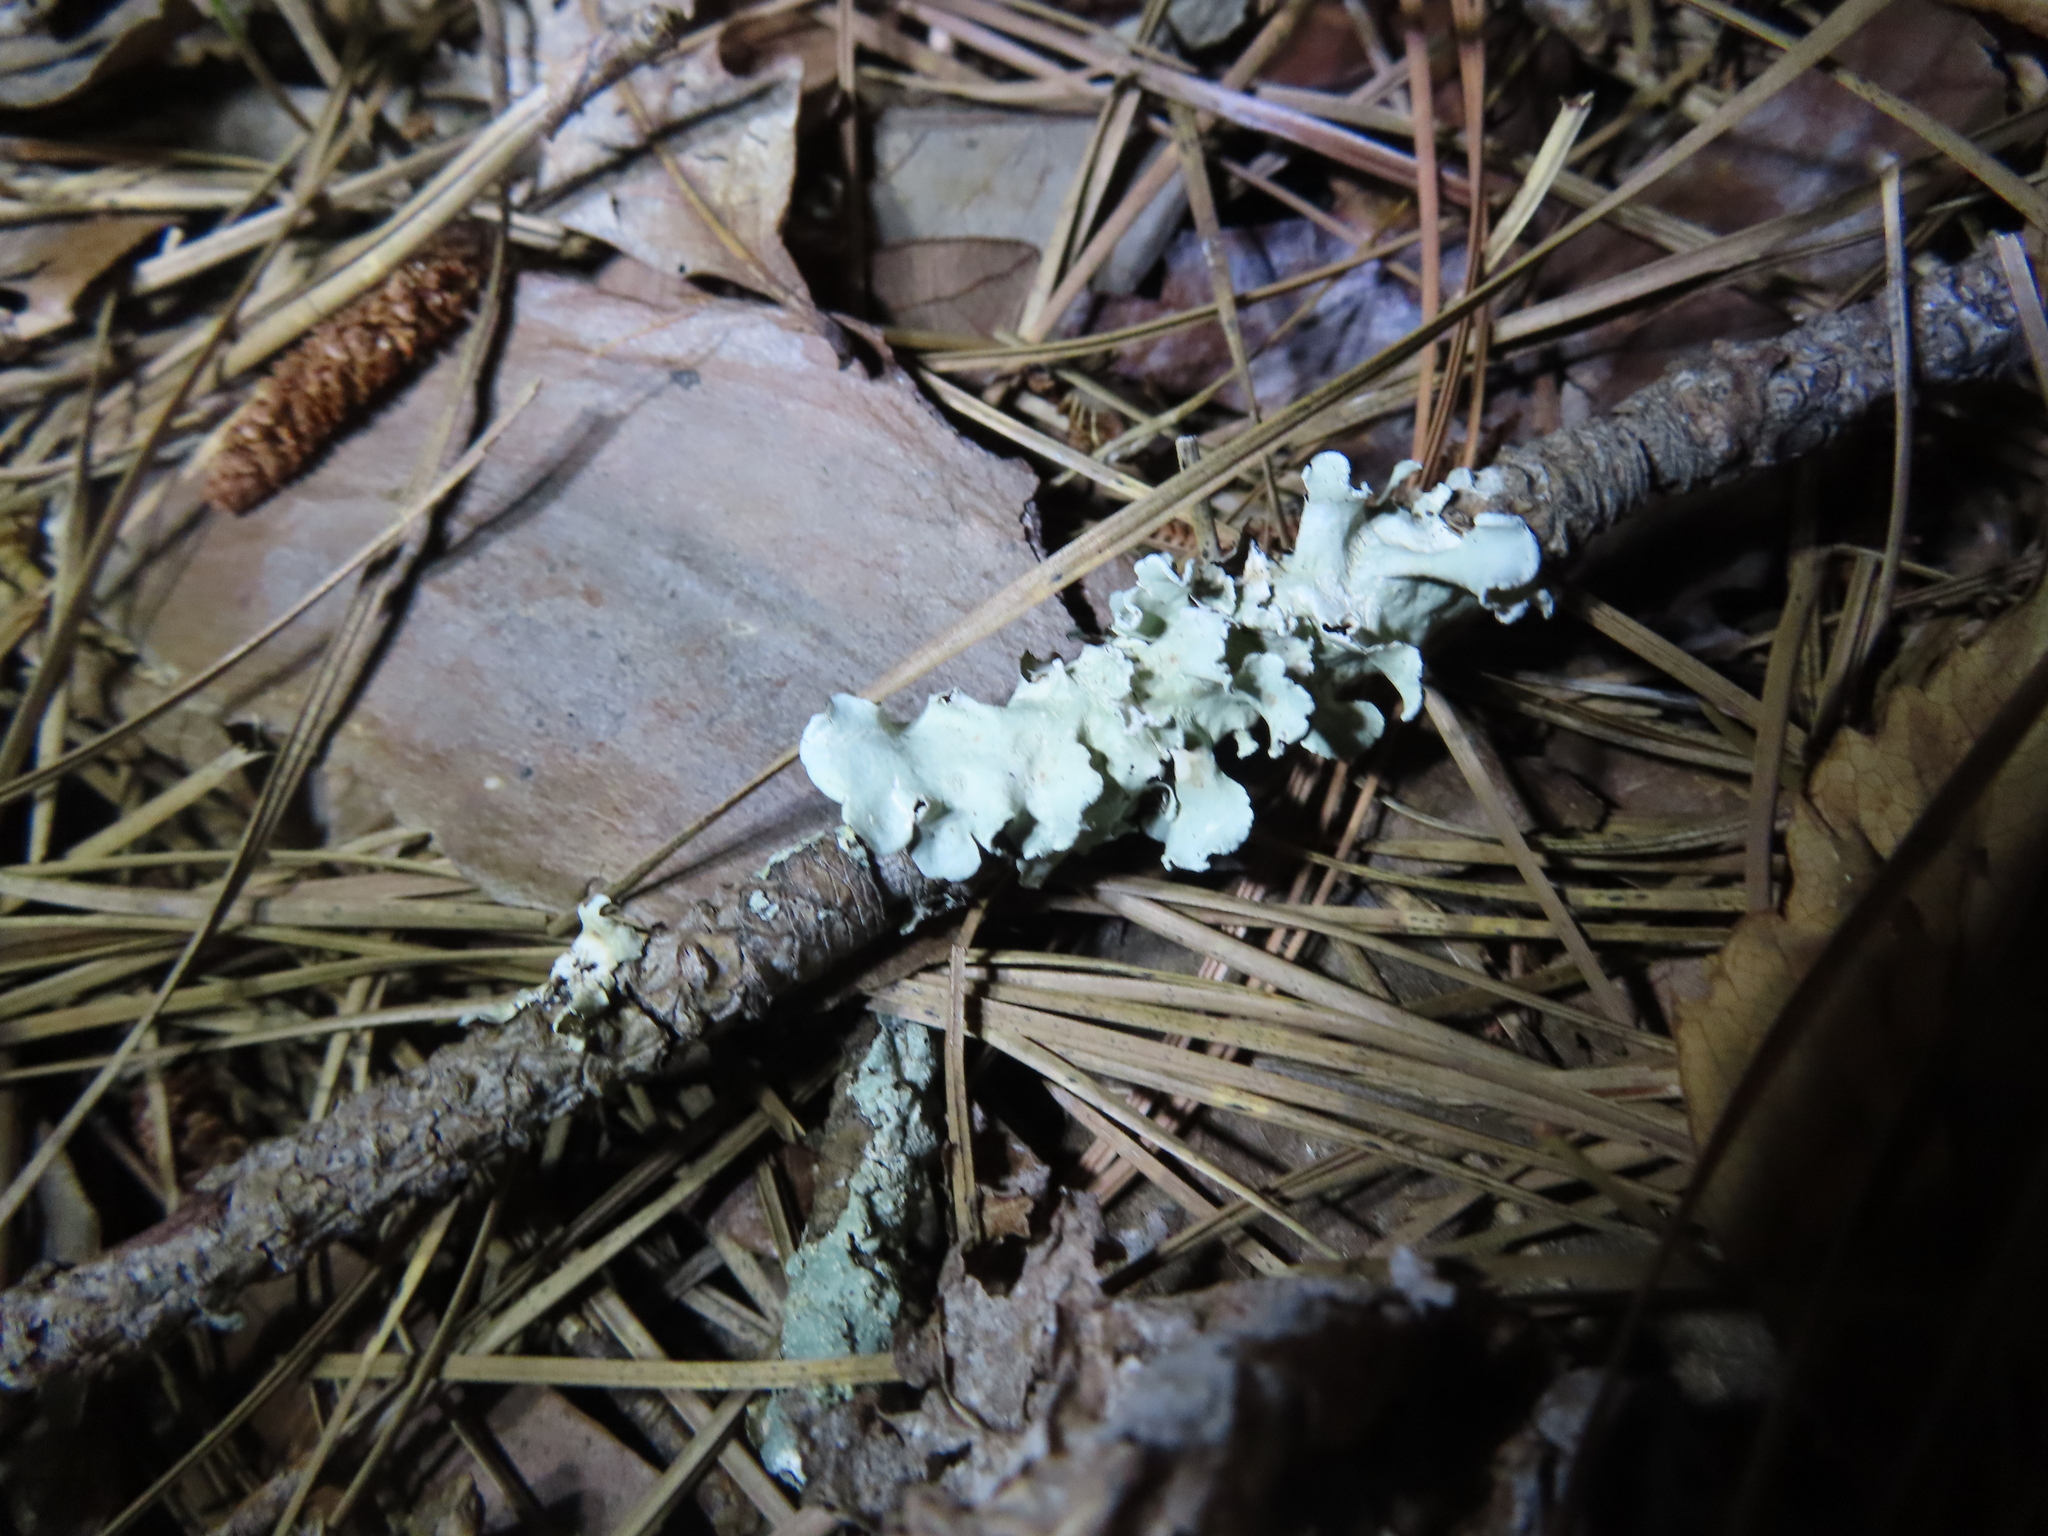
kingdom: Fungi
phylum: Ascomycota
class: Lecanoromycetes
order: Lecanorales
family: Parmeliaceae
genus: Parmotrema
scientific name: Parmotrema
